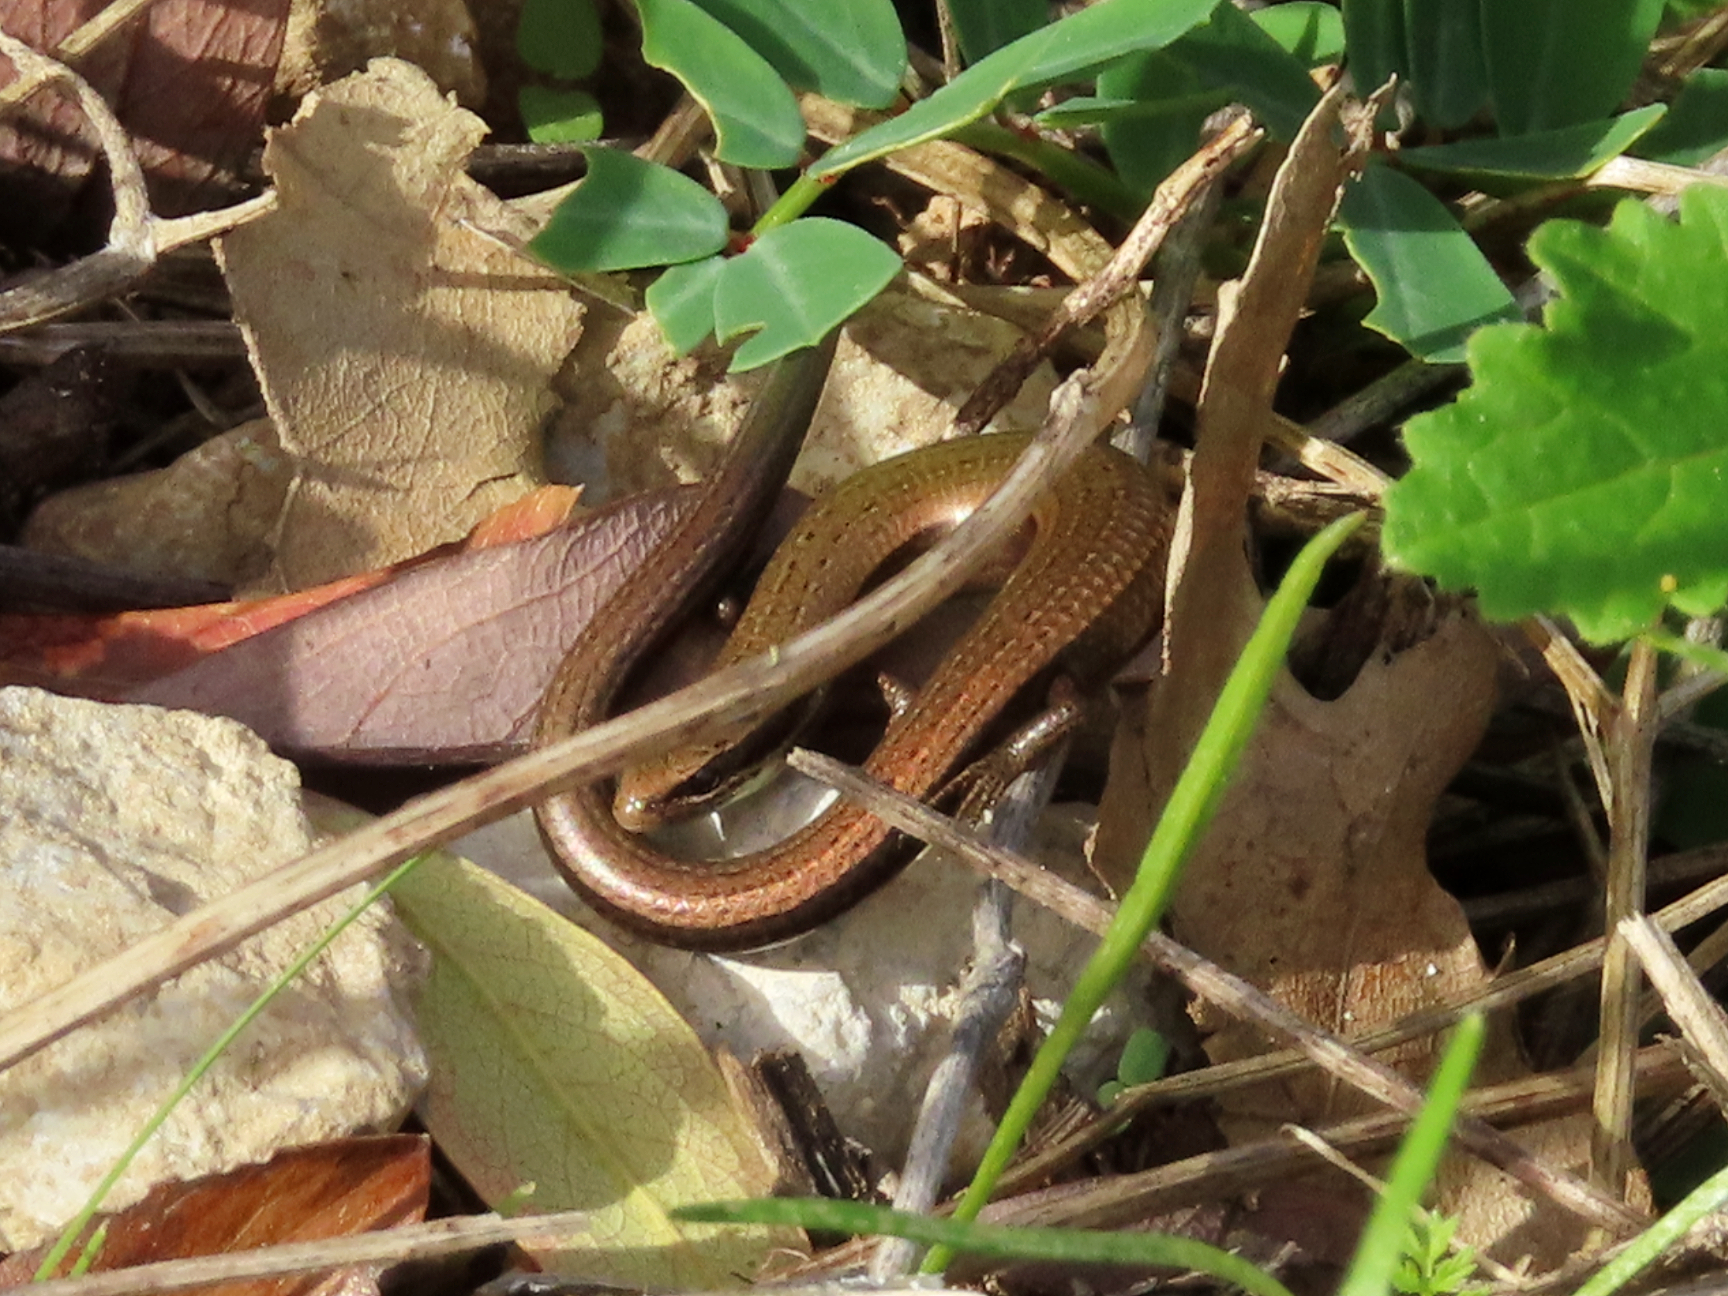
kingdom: Animalia
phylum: Chordata
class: Squamata
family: Scincidae
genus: Ablepharus
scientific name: Ablepharus kitaibelii
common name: Juniper skink
